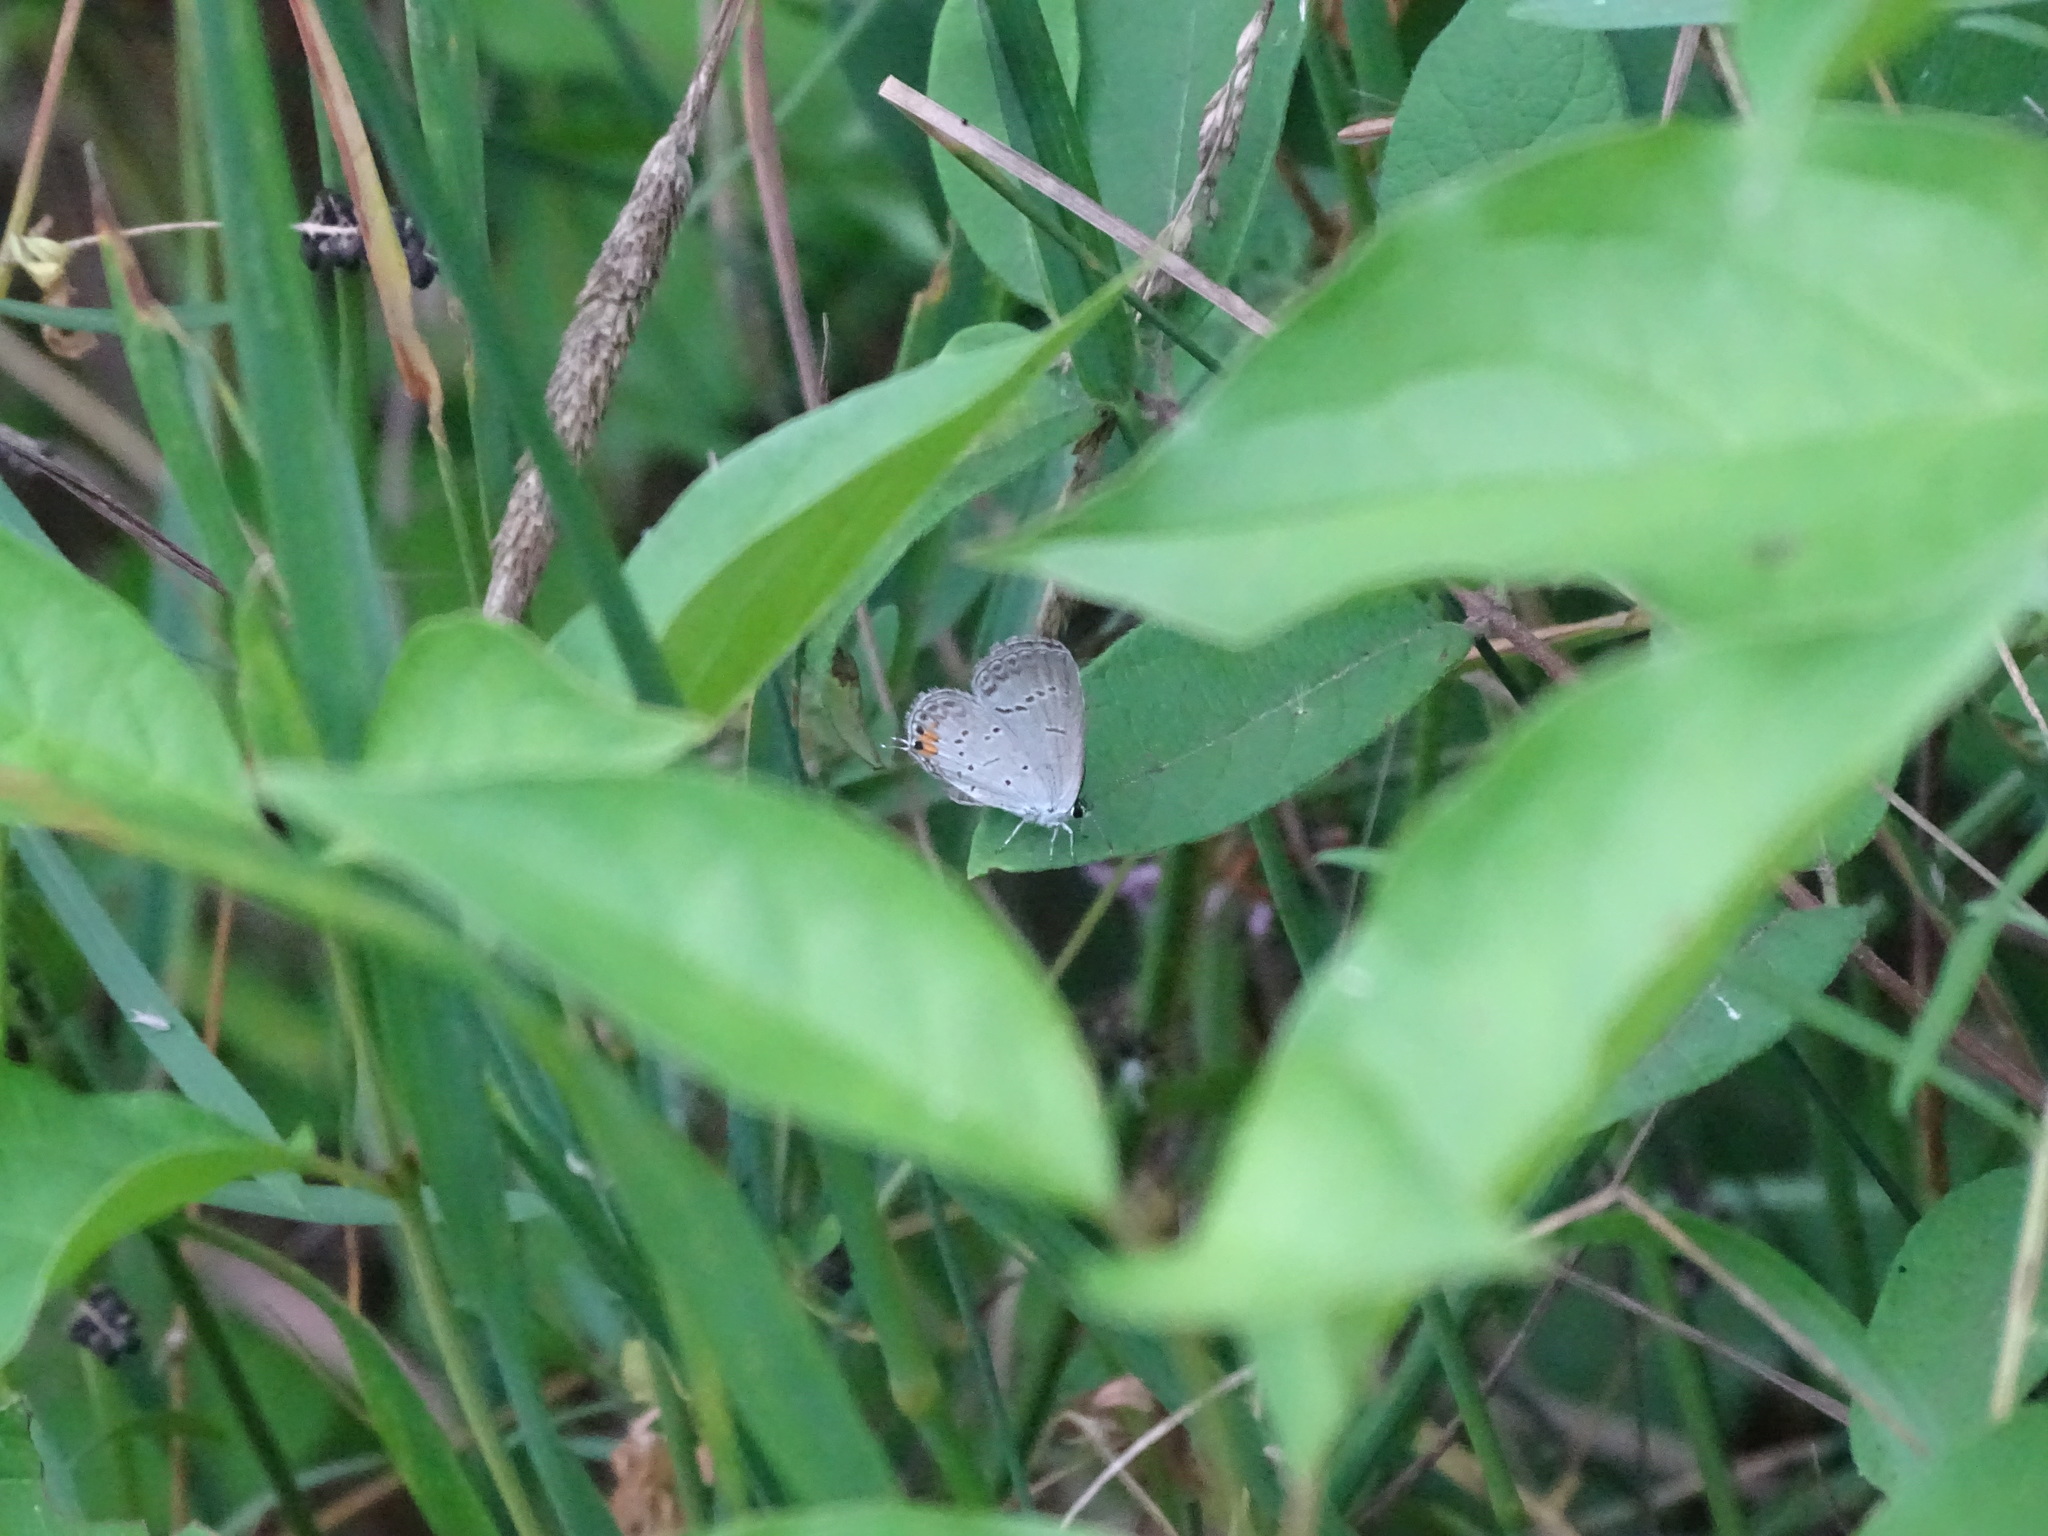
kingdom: Animalia
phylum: Arthropoda
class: Insecta
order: Lepidoptera
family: Lycaenidae
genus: Elkalyce
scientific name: Elkalyce comyntas
